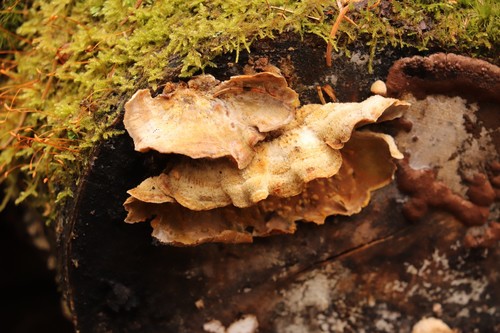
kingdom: Fungi
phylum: Basidiomycota
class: Agaricomycetes
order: Russulales
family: Stereaceae
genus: Stereum
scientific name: Stereum hirsutum
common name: Hairy curtain crust
